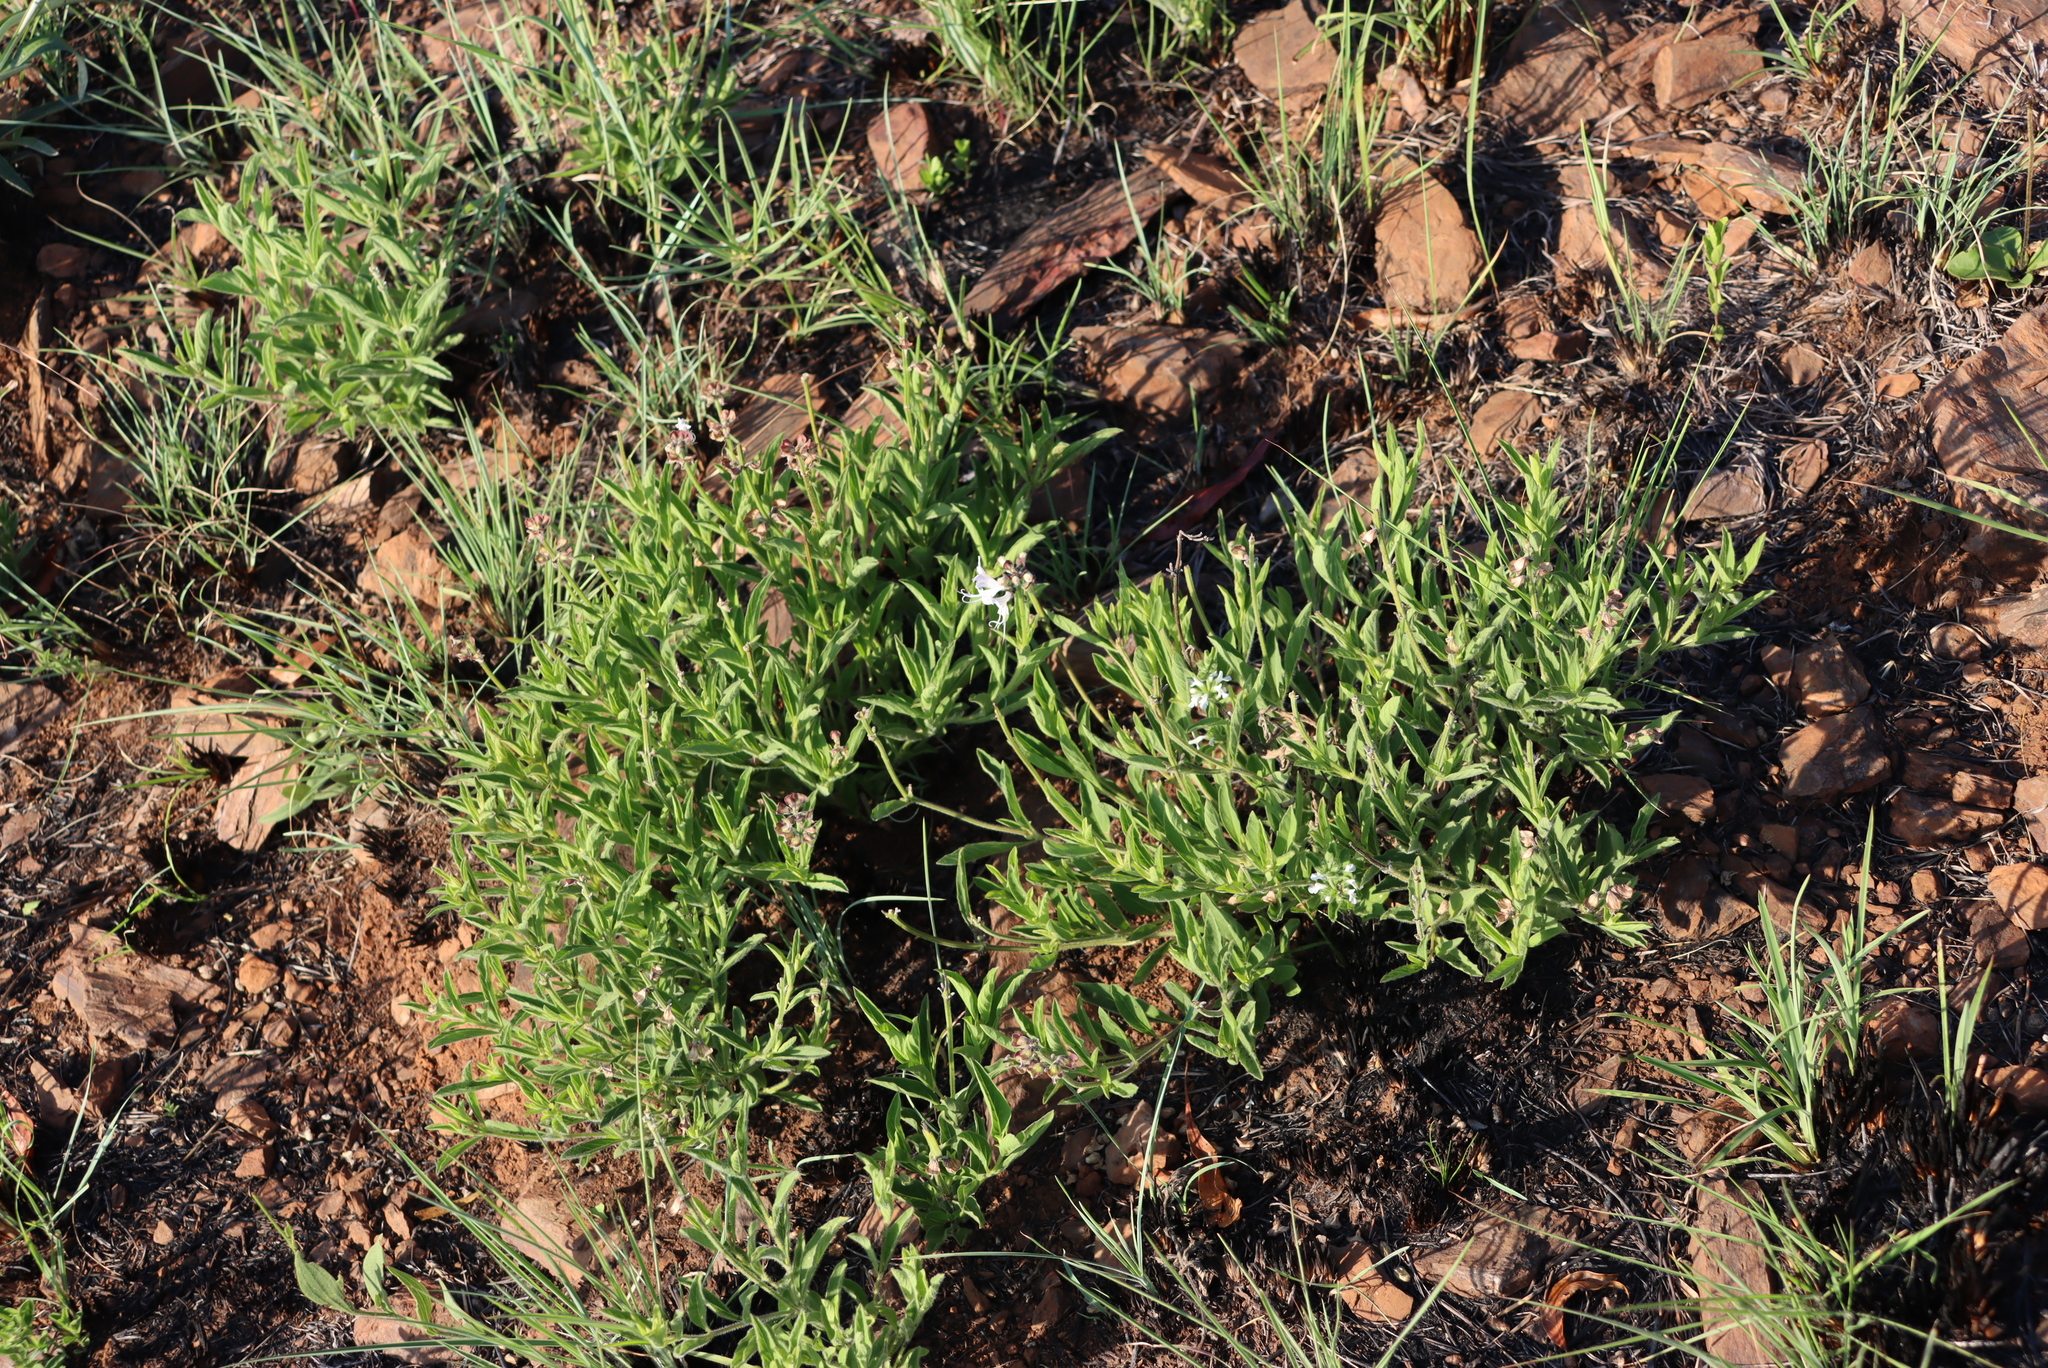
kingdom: Plantae
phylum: Tracheophyta
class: Magnoliopsida
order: Lamiales
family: Lamiaceae
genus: Ocimum
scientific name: Ocimum obovatum
